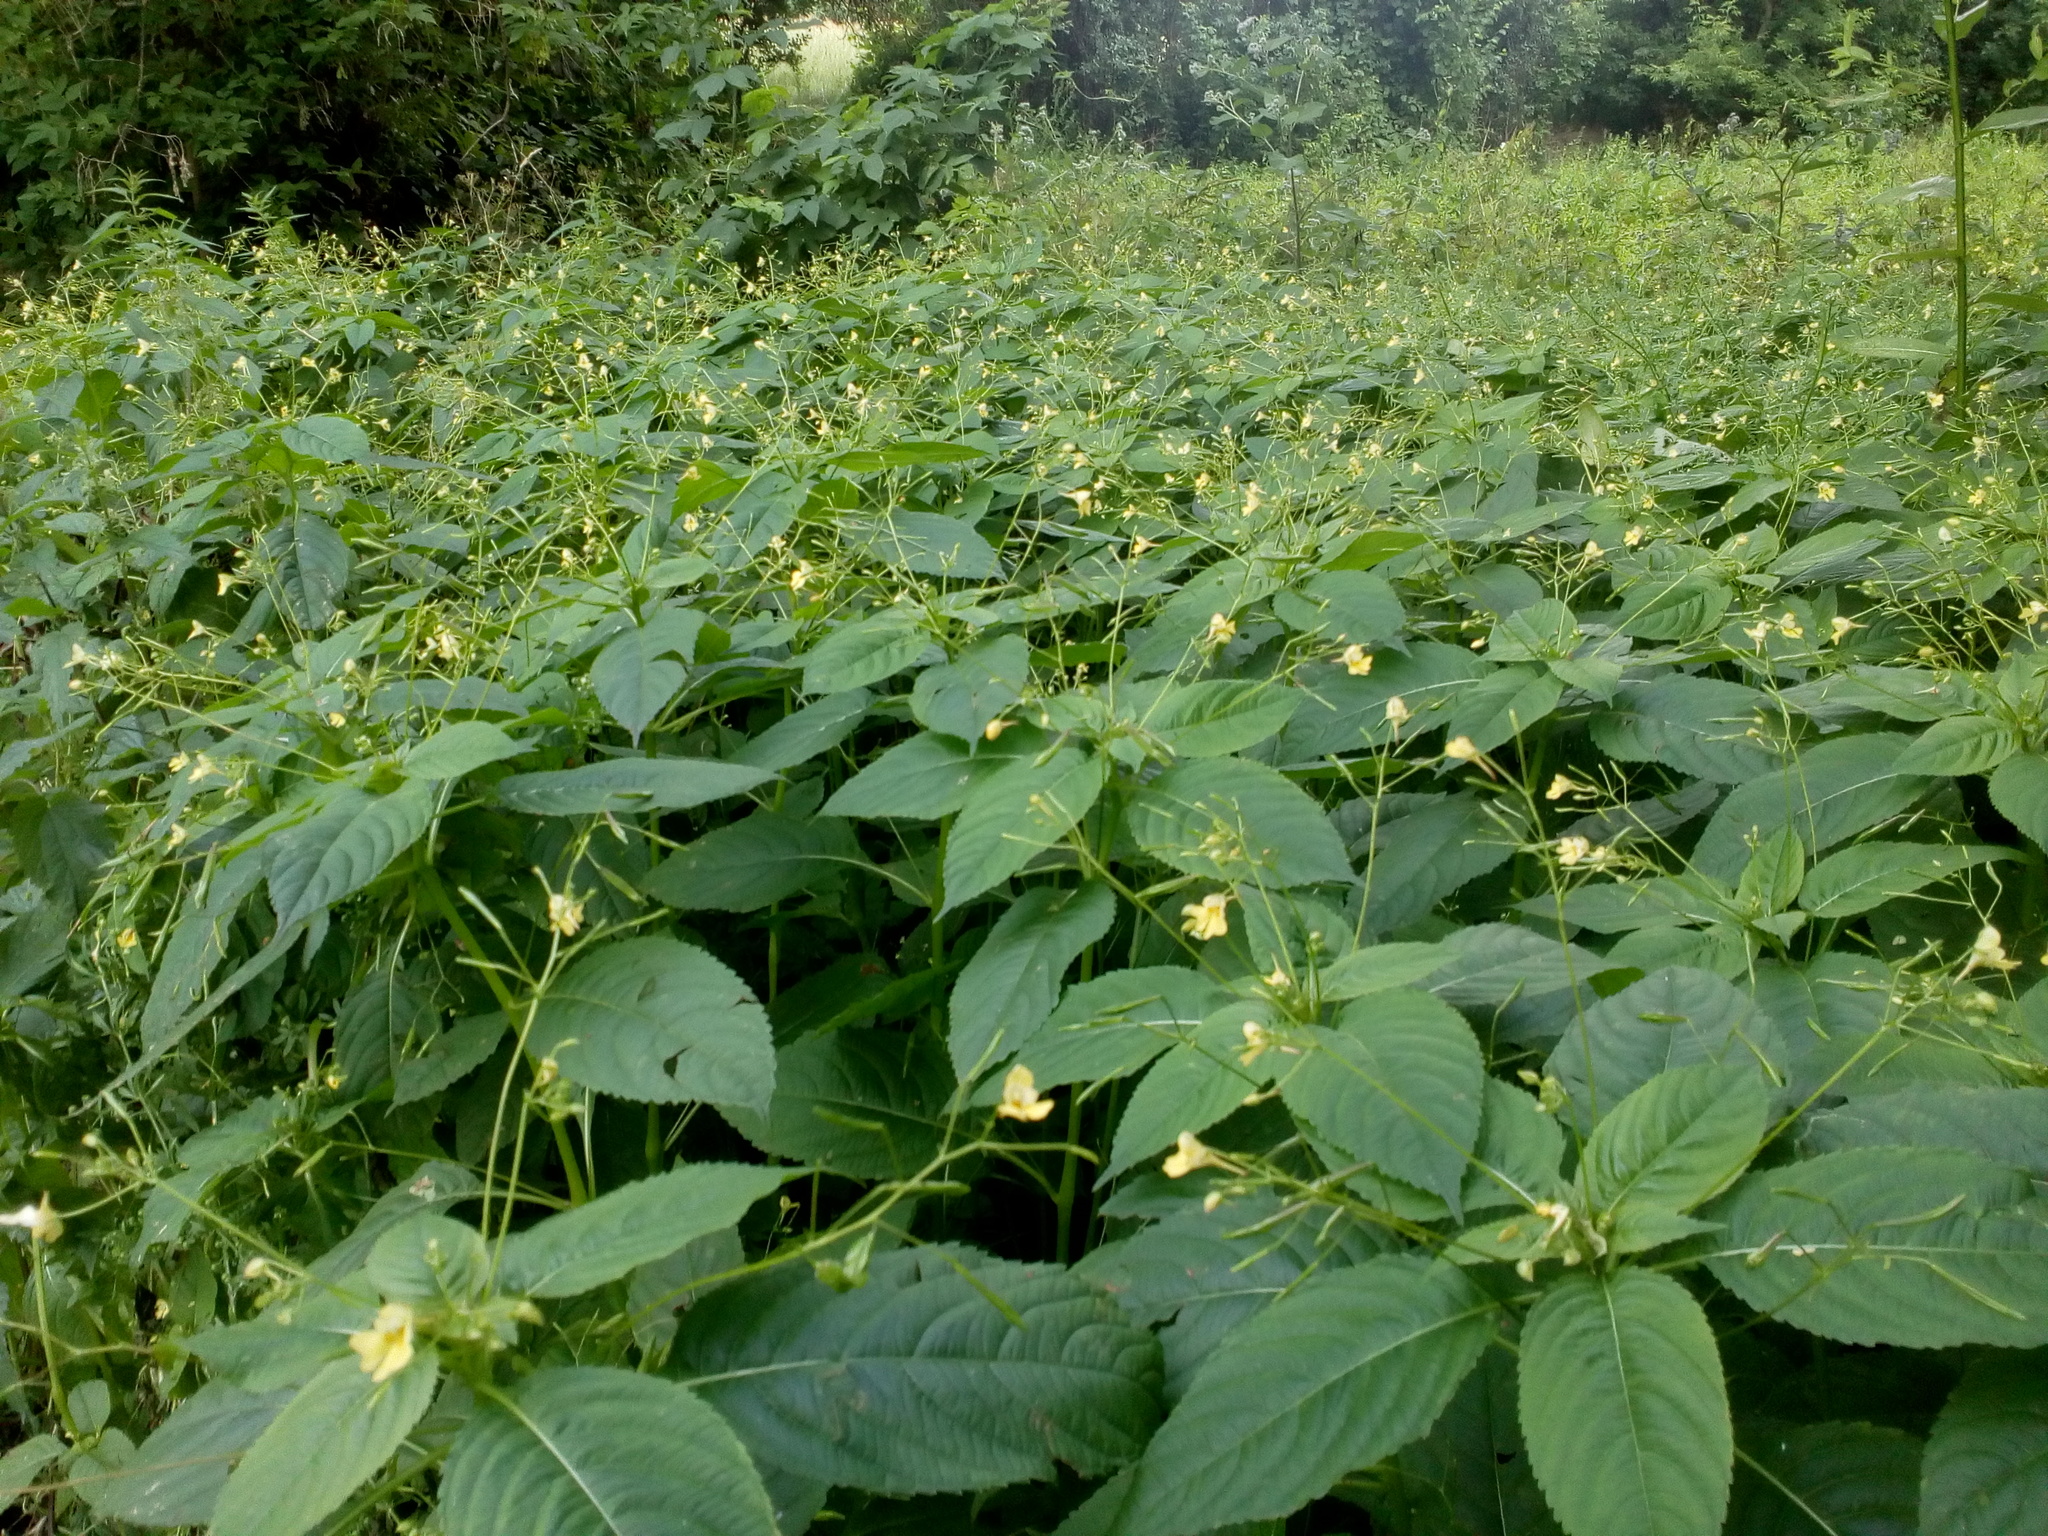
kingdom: Plantae
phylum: Tracheophyta
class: Magnoliopsida
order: Ericales
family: Balsaminaceae
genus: Impatiens
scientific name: Impatiens parviflora
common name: Small balsam
